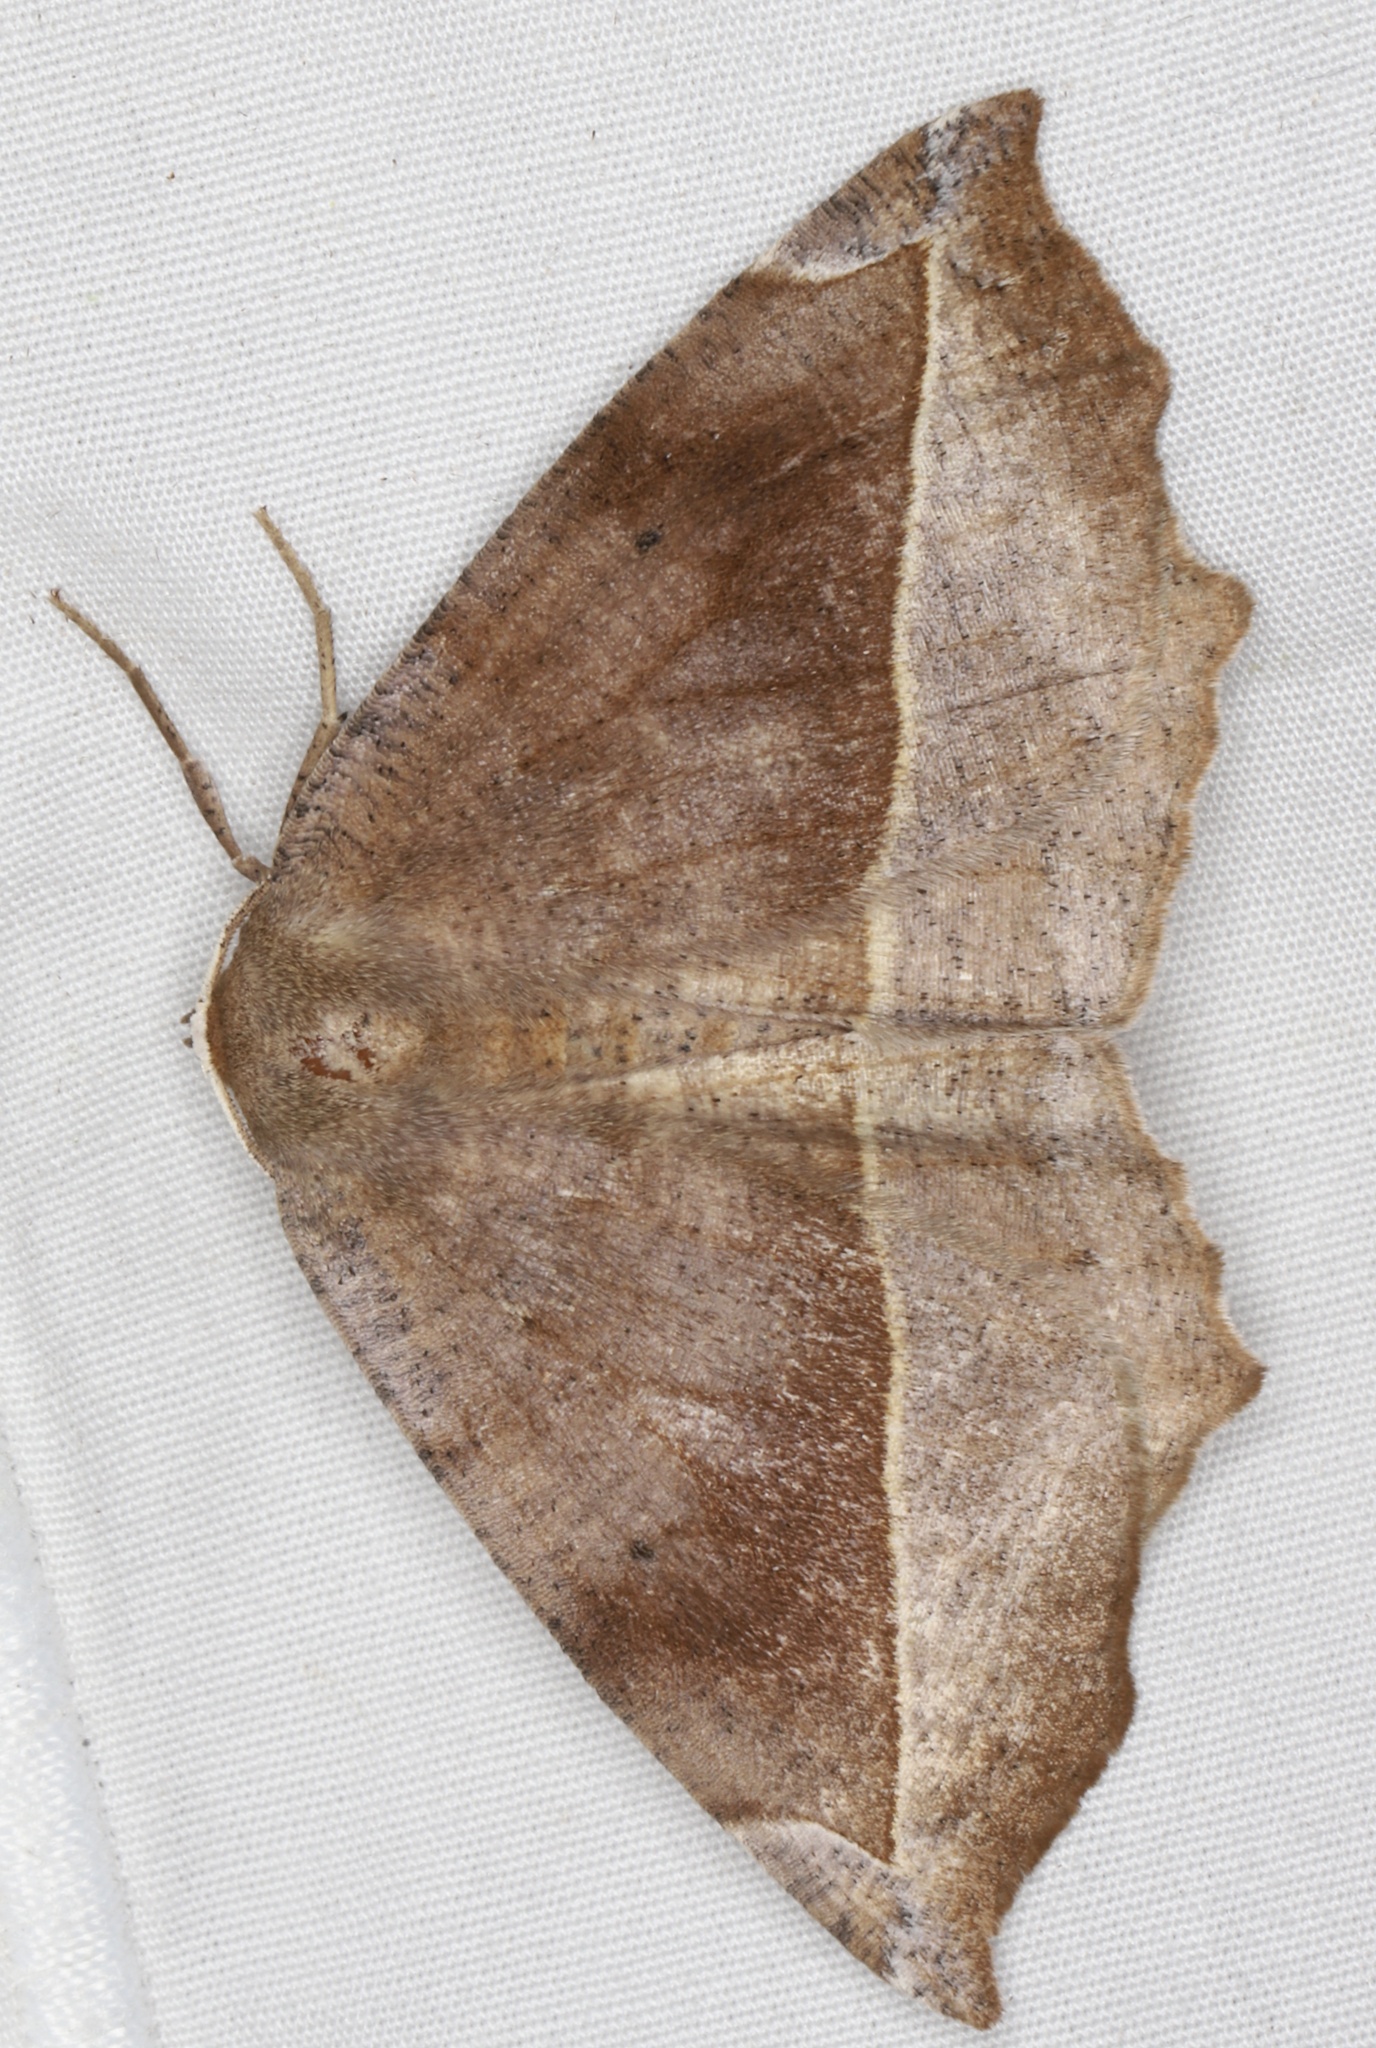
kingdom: Animalia
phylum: Arthropoda
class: Insecta
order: Lepidoptera
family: Geometridae
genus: Eutrapela
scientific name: Eutrapela clemataria
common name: Curved-toothed geometer
